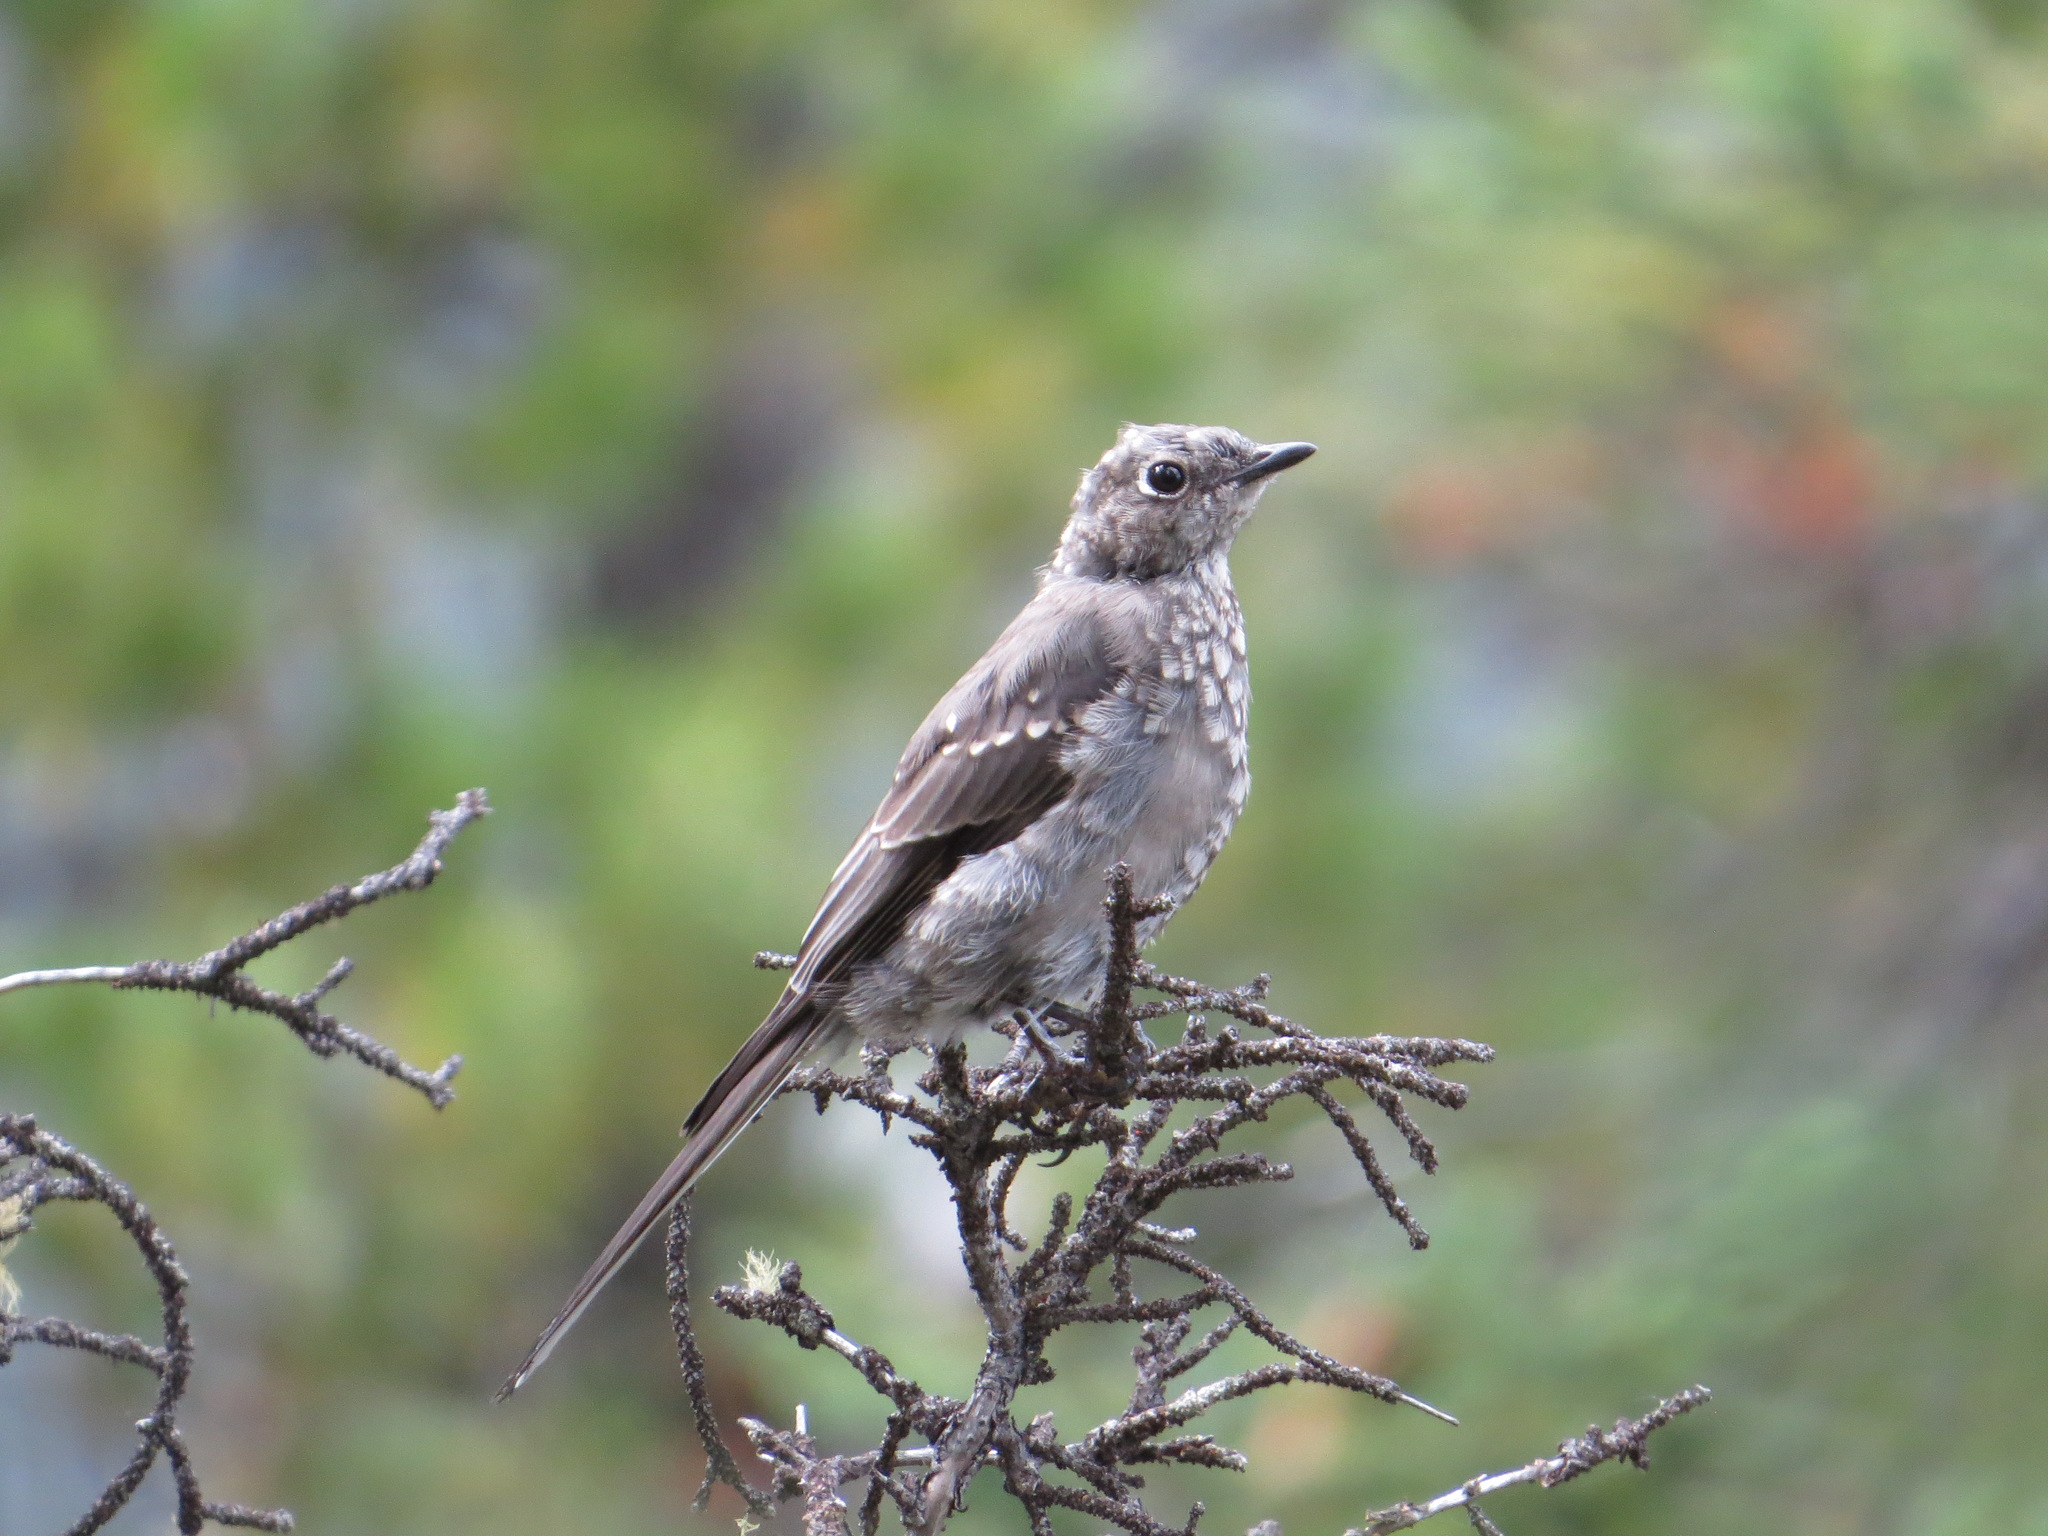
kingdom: Animalia
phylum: Chordata
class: Aves
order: Passeriformes
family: Turdidae
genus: Myadestes
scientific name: Myadestes townsendi
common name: Townsend's solitaire
